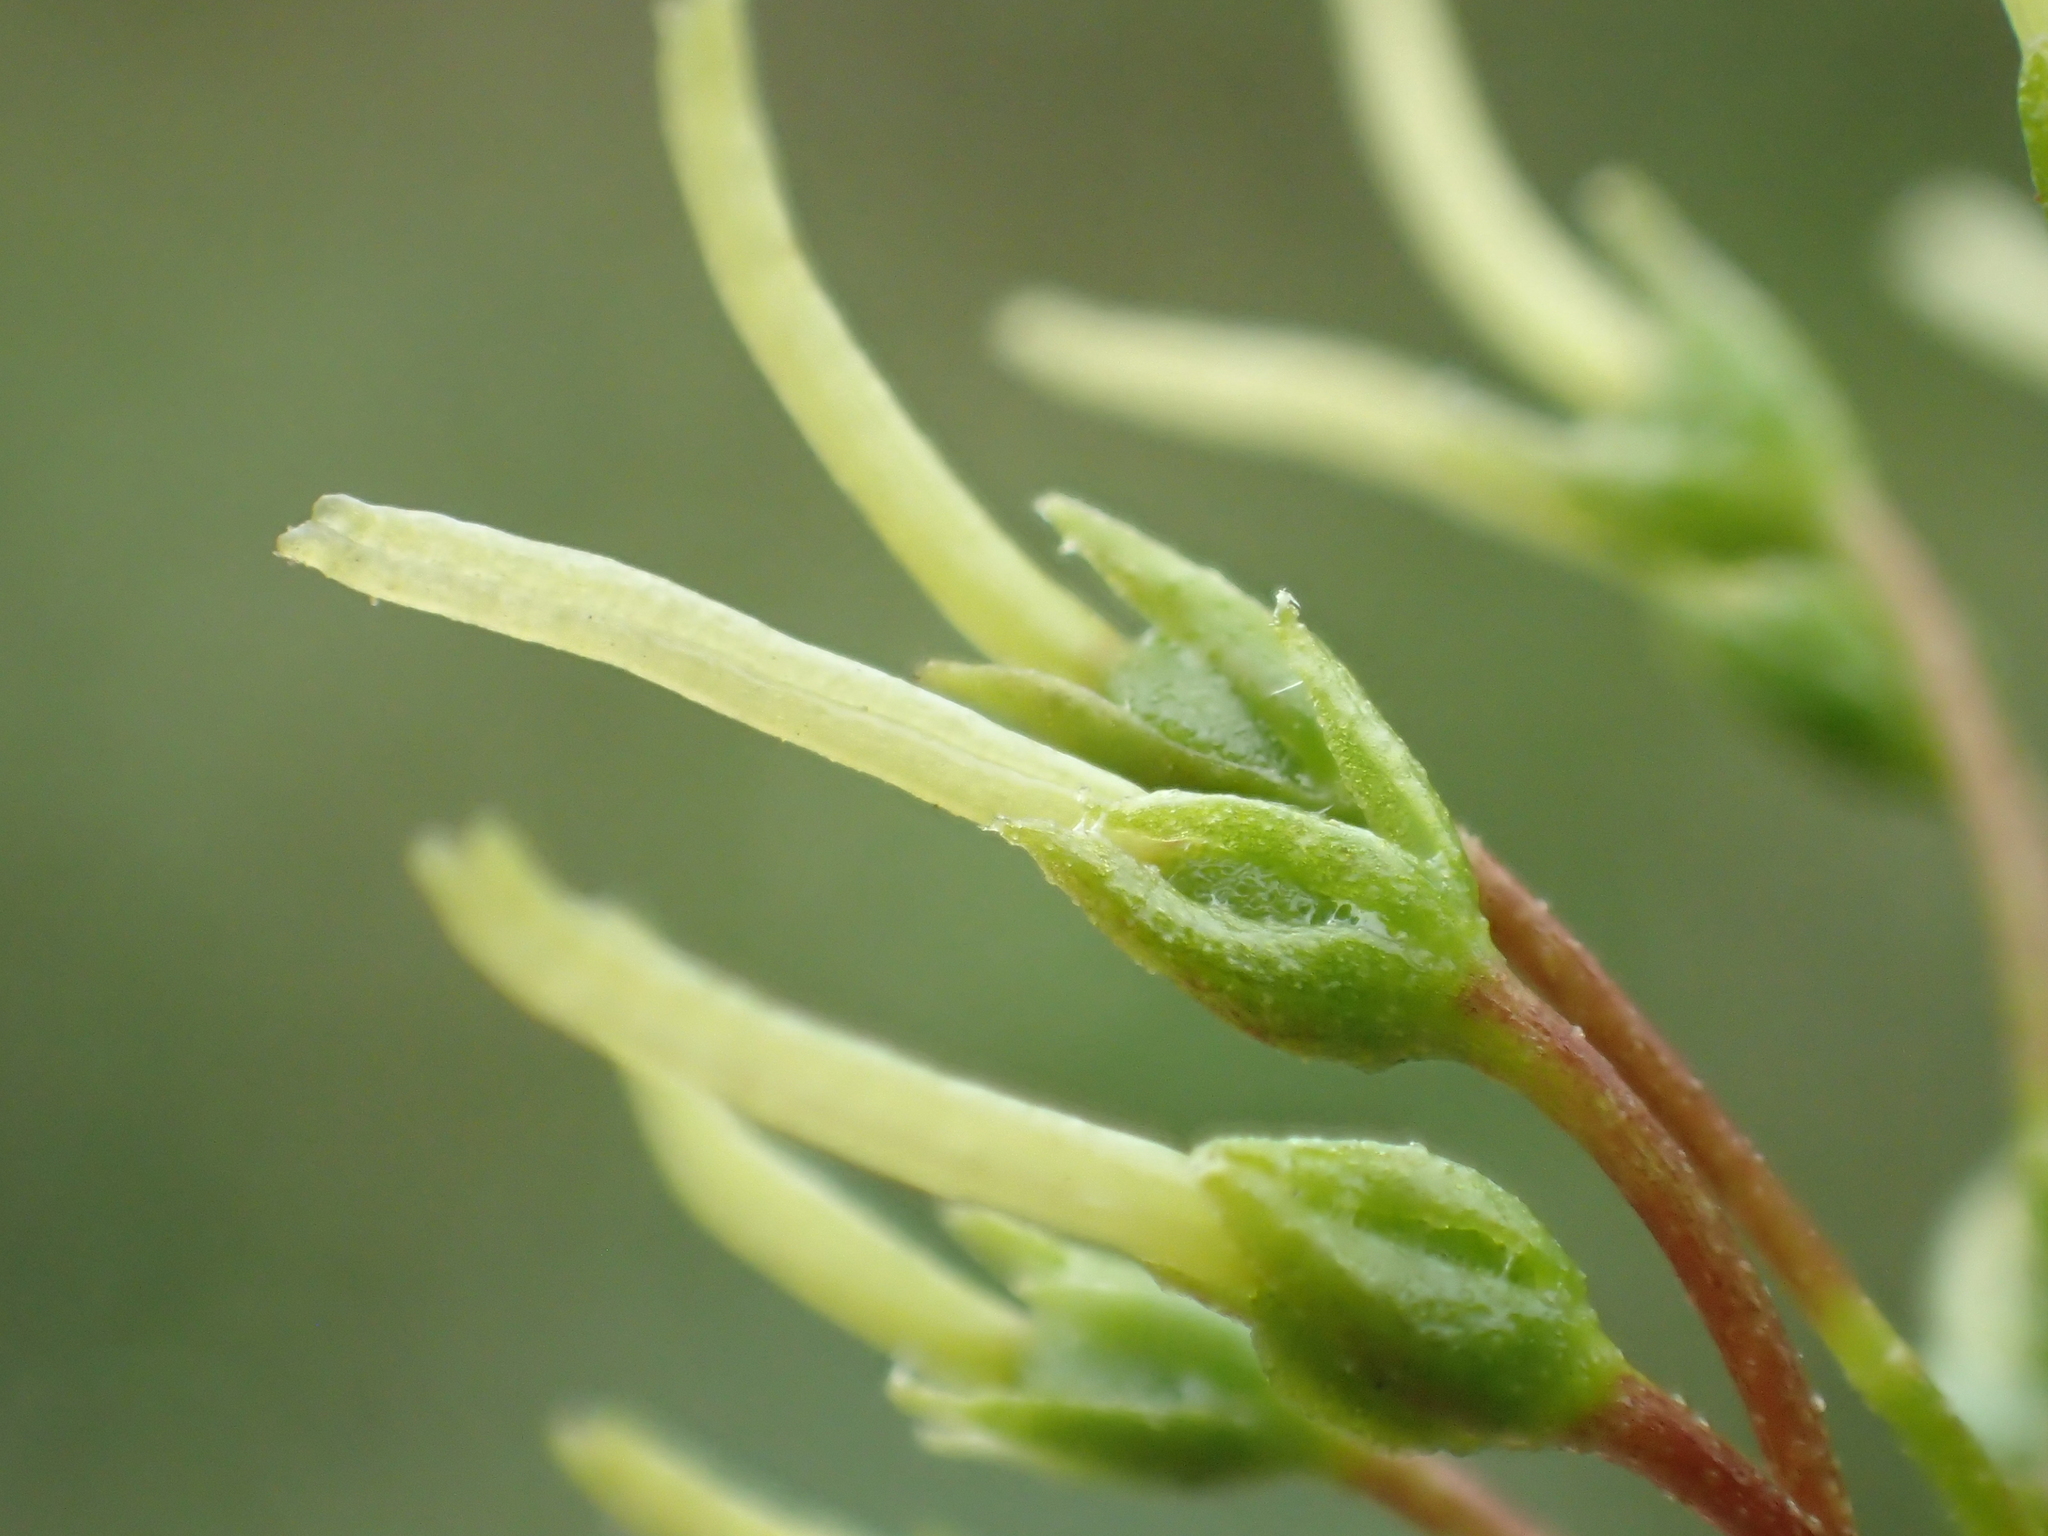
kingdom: Plantae
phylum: Tracheophyta
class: Magnoliopsida
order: Sapindales
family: Sapindaceae
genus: Dodonaea
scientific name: Dodonaea viscosa
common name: Hopbush
